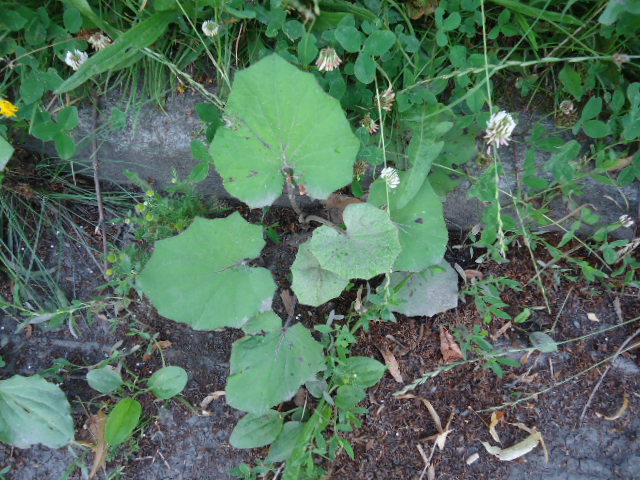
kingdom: Plantae
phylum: Tracheophyta
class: Magnoliopsida
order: Asterales
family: Asteraceae
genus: Tussilago
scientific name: Tussilago farfara
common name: Coltsfoot
